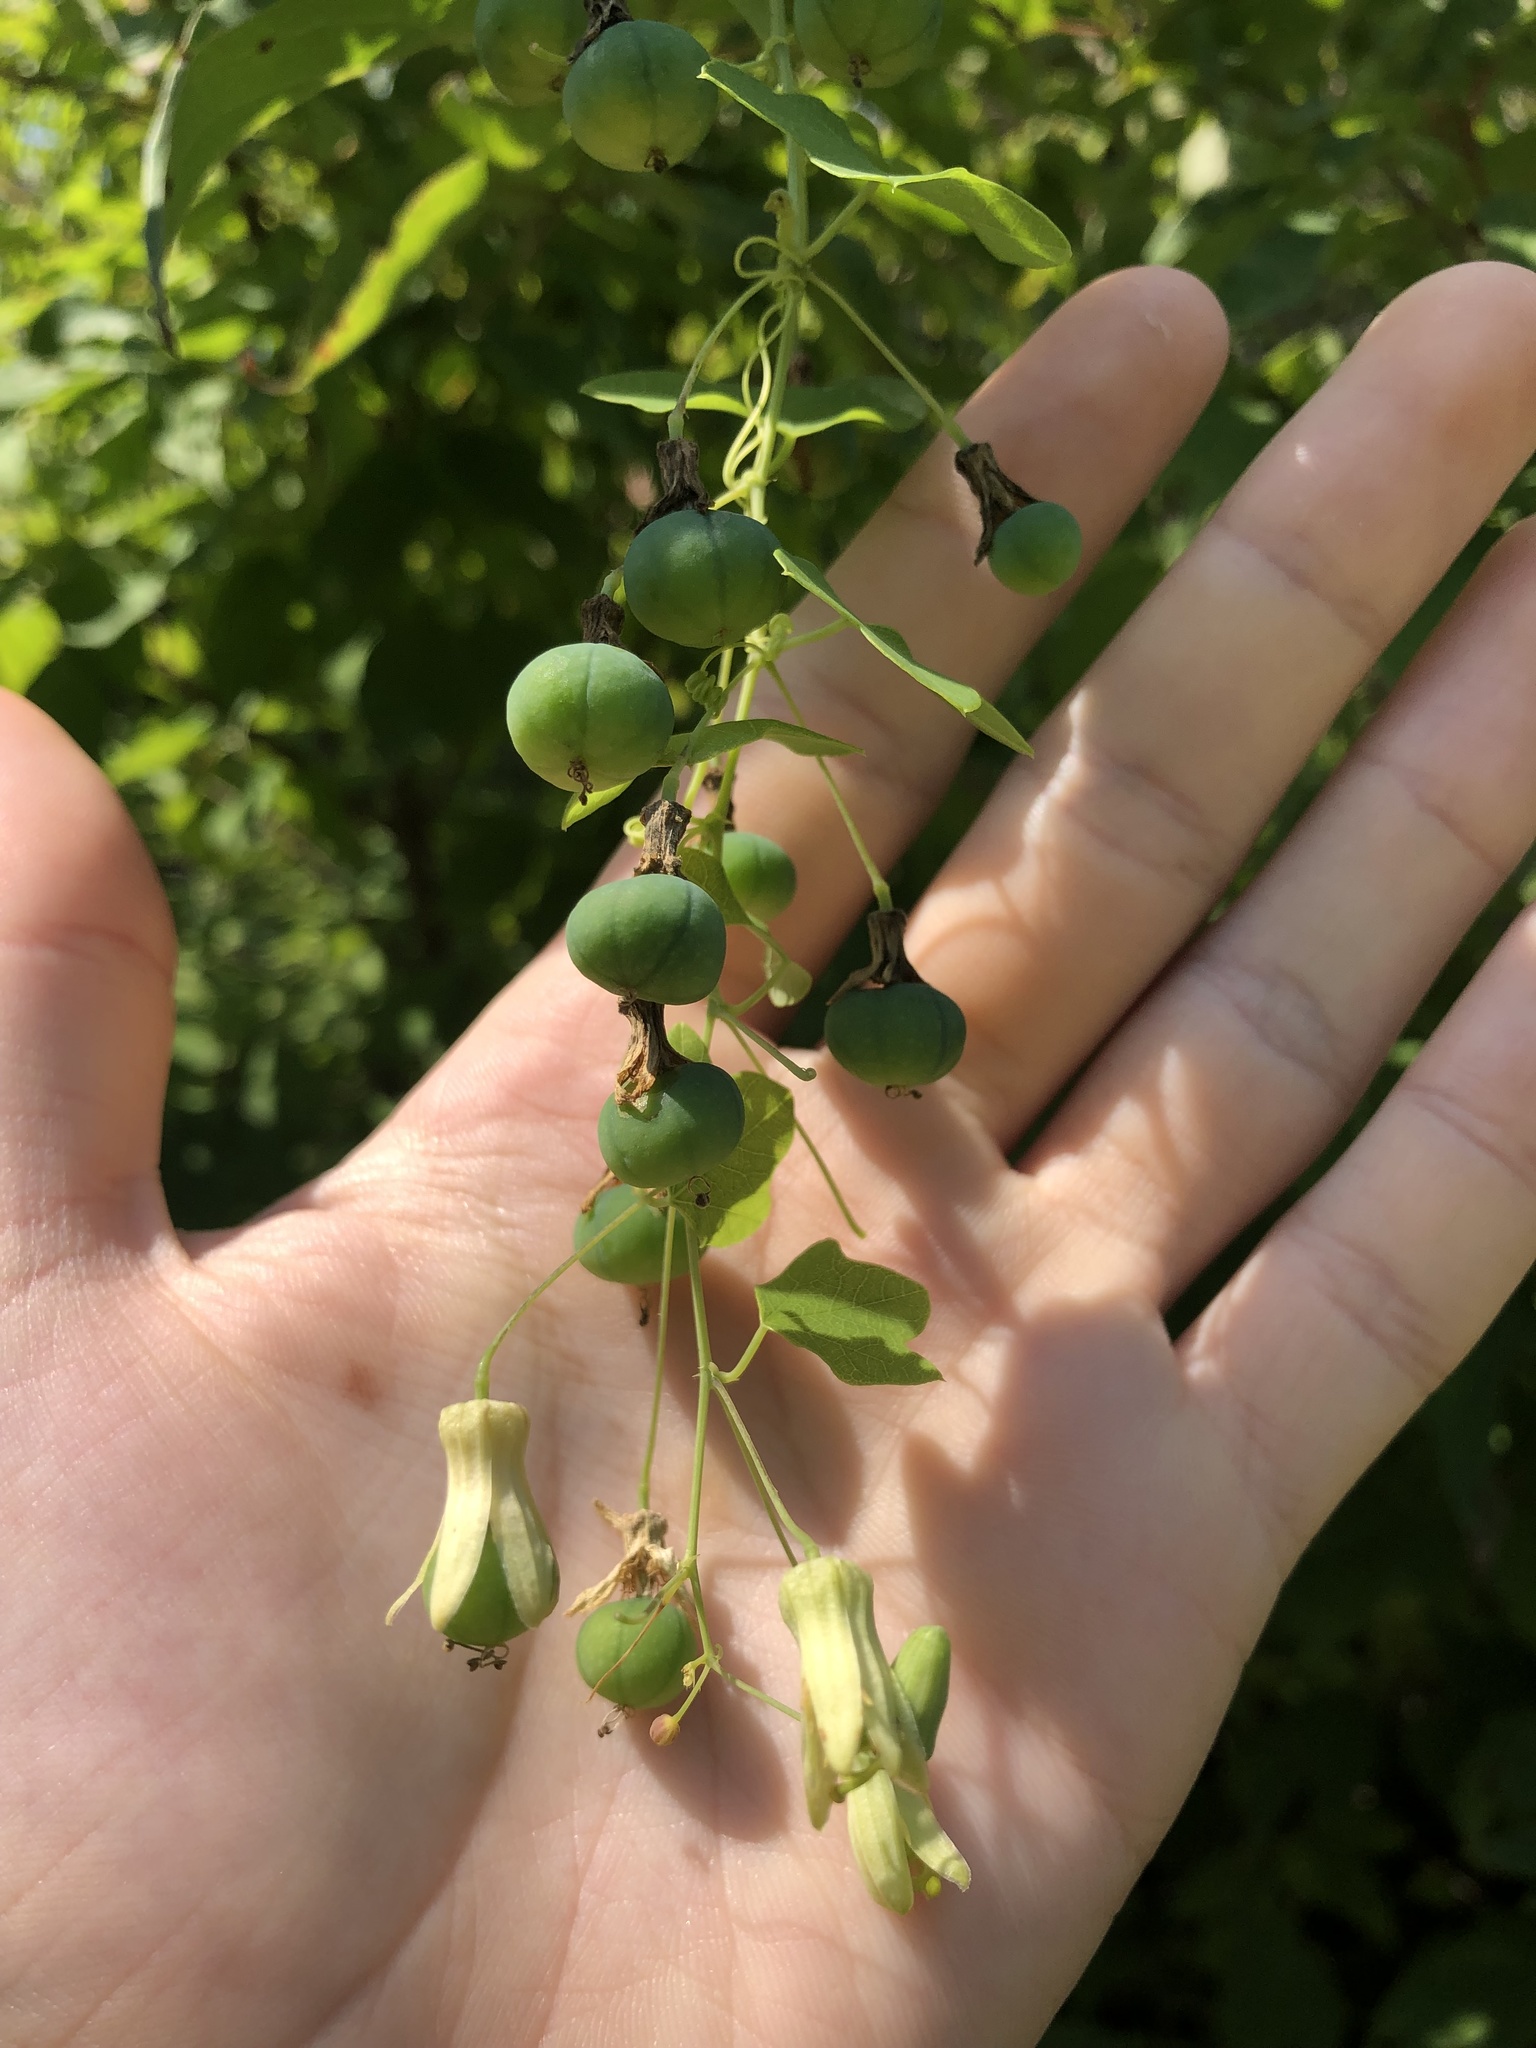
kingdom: Plantae
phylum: Tracheophyta
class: Magnoliopsida
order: Malpighiales
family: Passifloraceae
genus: Passiflora
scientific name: Passiflora lutea
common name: Yellow passionflower
